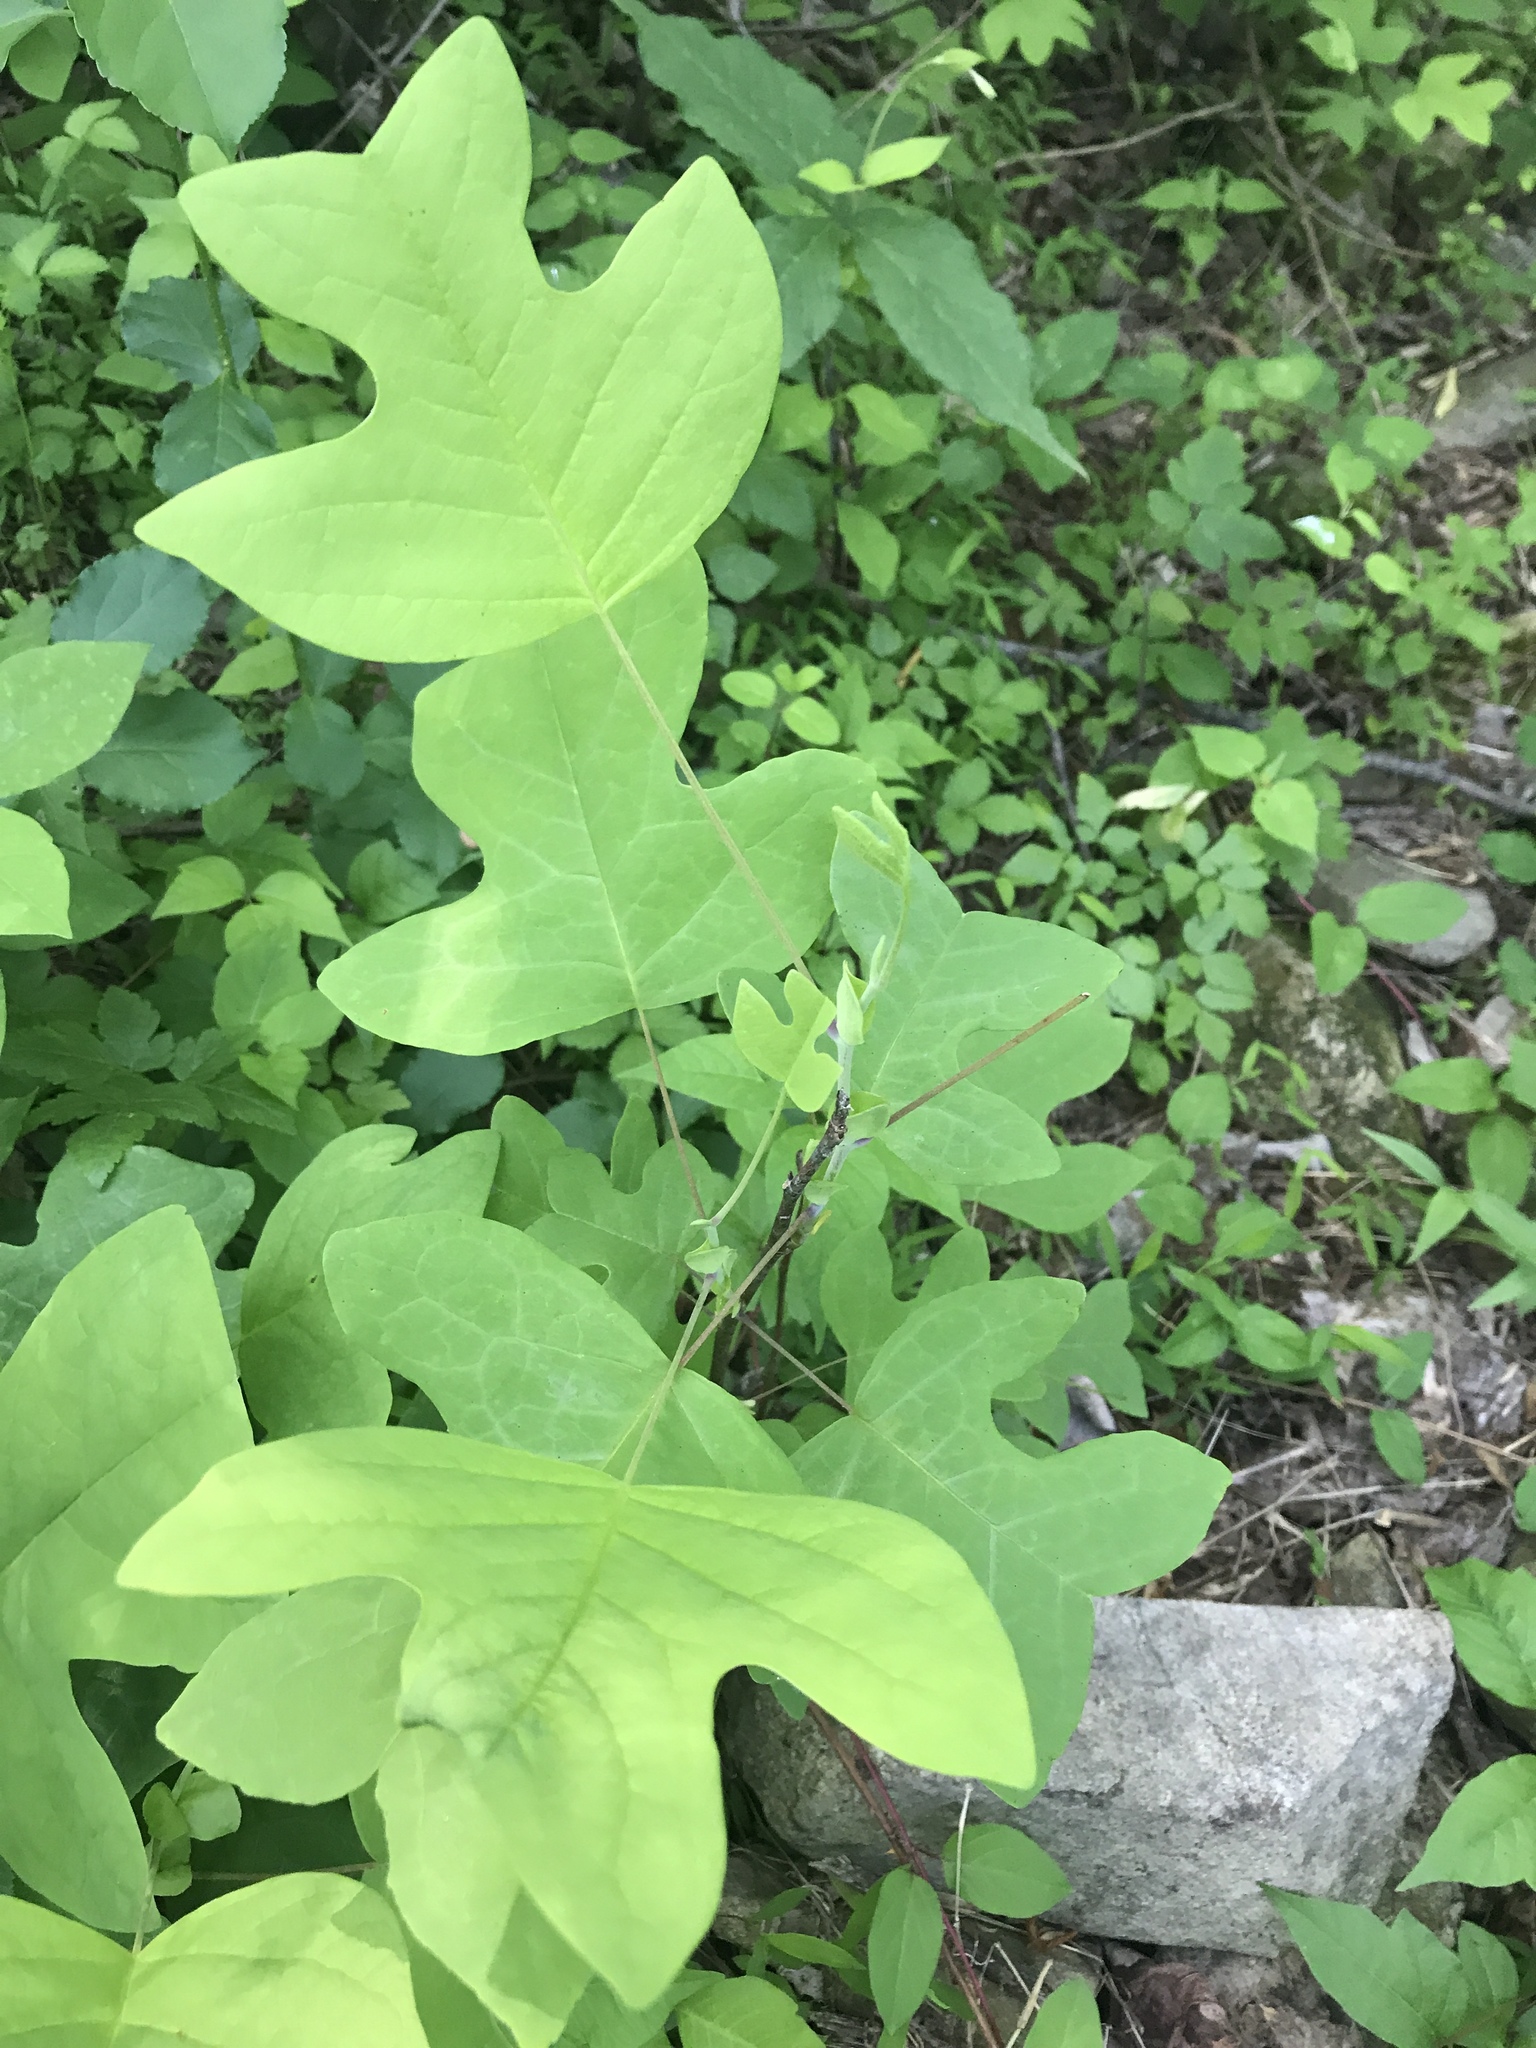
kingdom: Plantae
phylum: Tracheophyta
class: Magnoliopsida
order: Magnoliales
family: Magnoliaceae
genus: Liriodendron
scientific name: Liriodendron tulipifera
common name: Tulip tree
